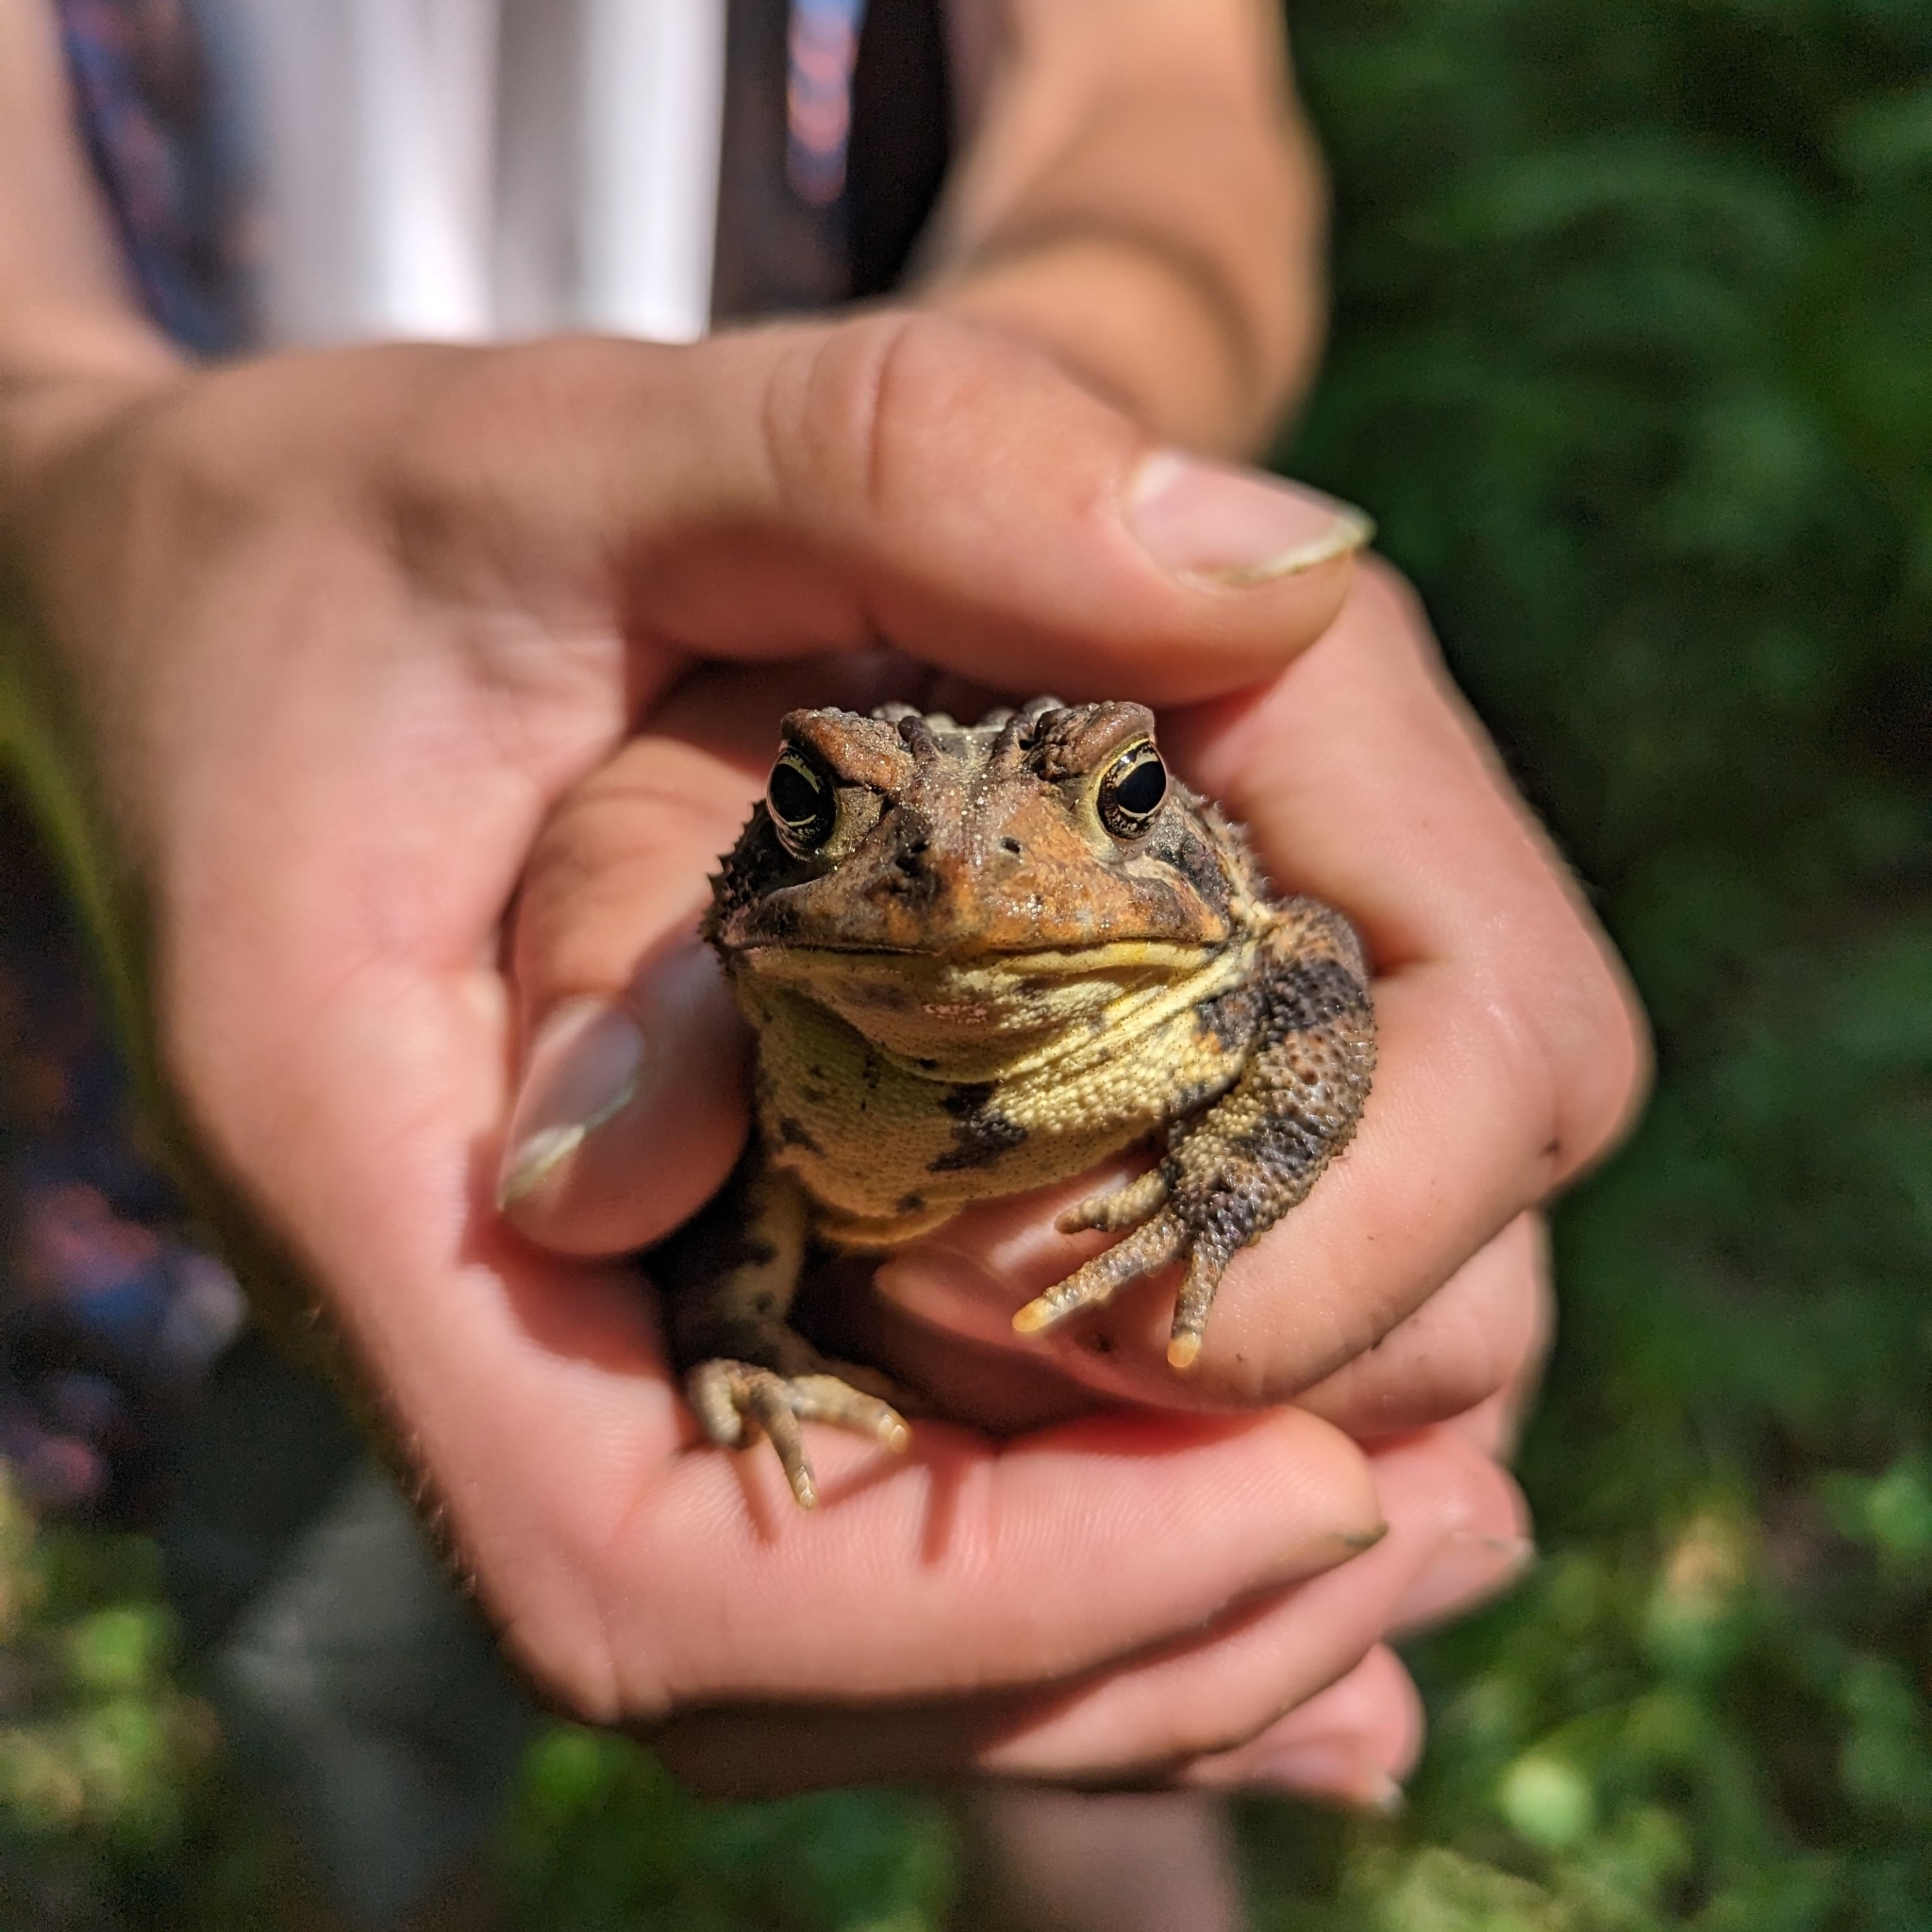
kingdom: Animalia
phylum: Chordata
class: Amphibia
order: Anura
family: Bufonidae
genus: Anaxyrus
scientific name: Anaxyrus americanus
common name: American toad
